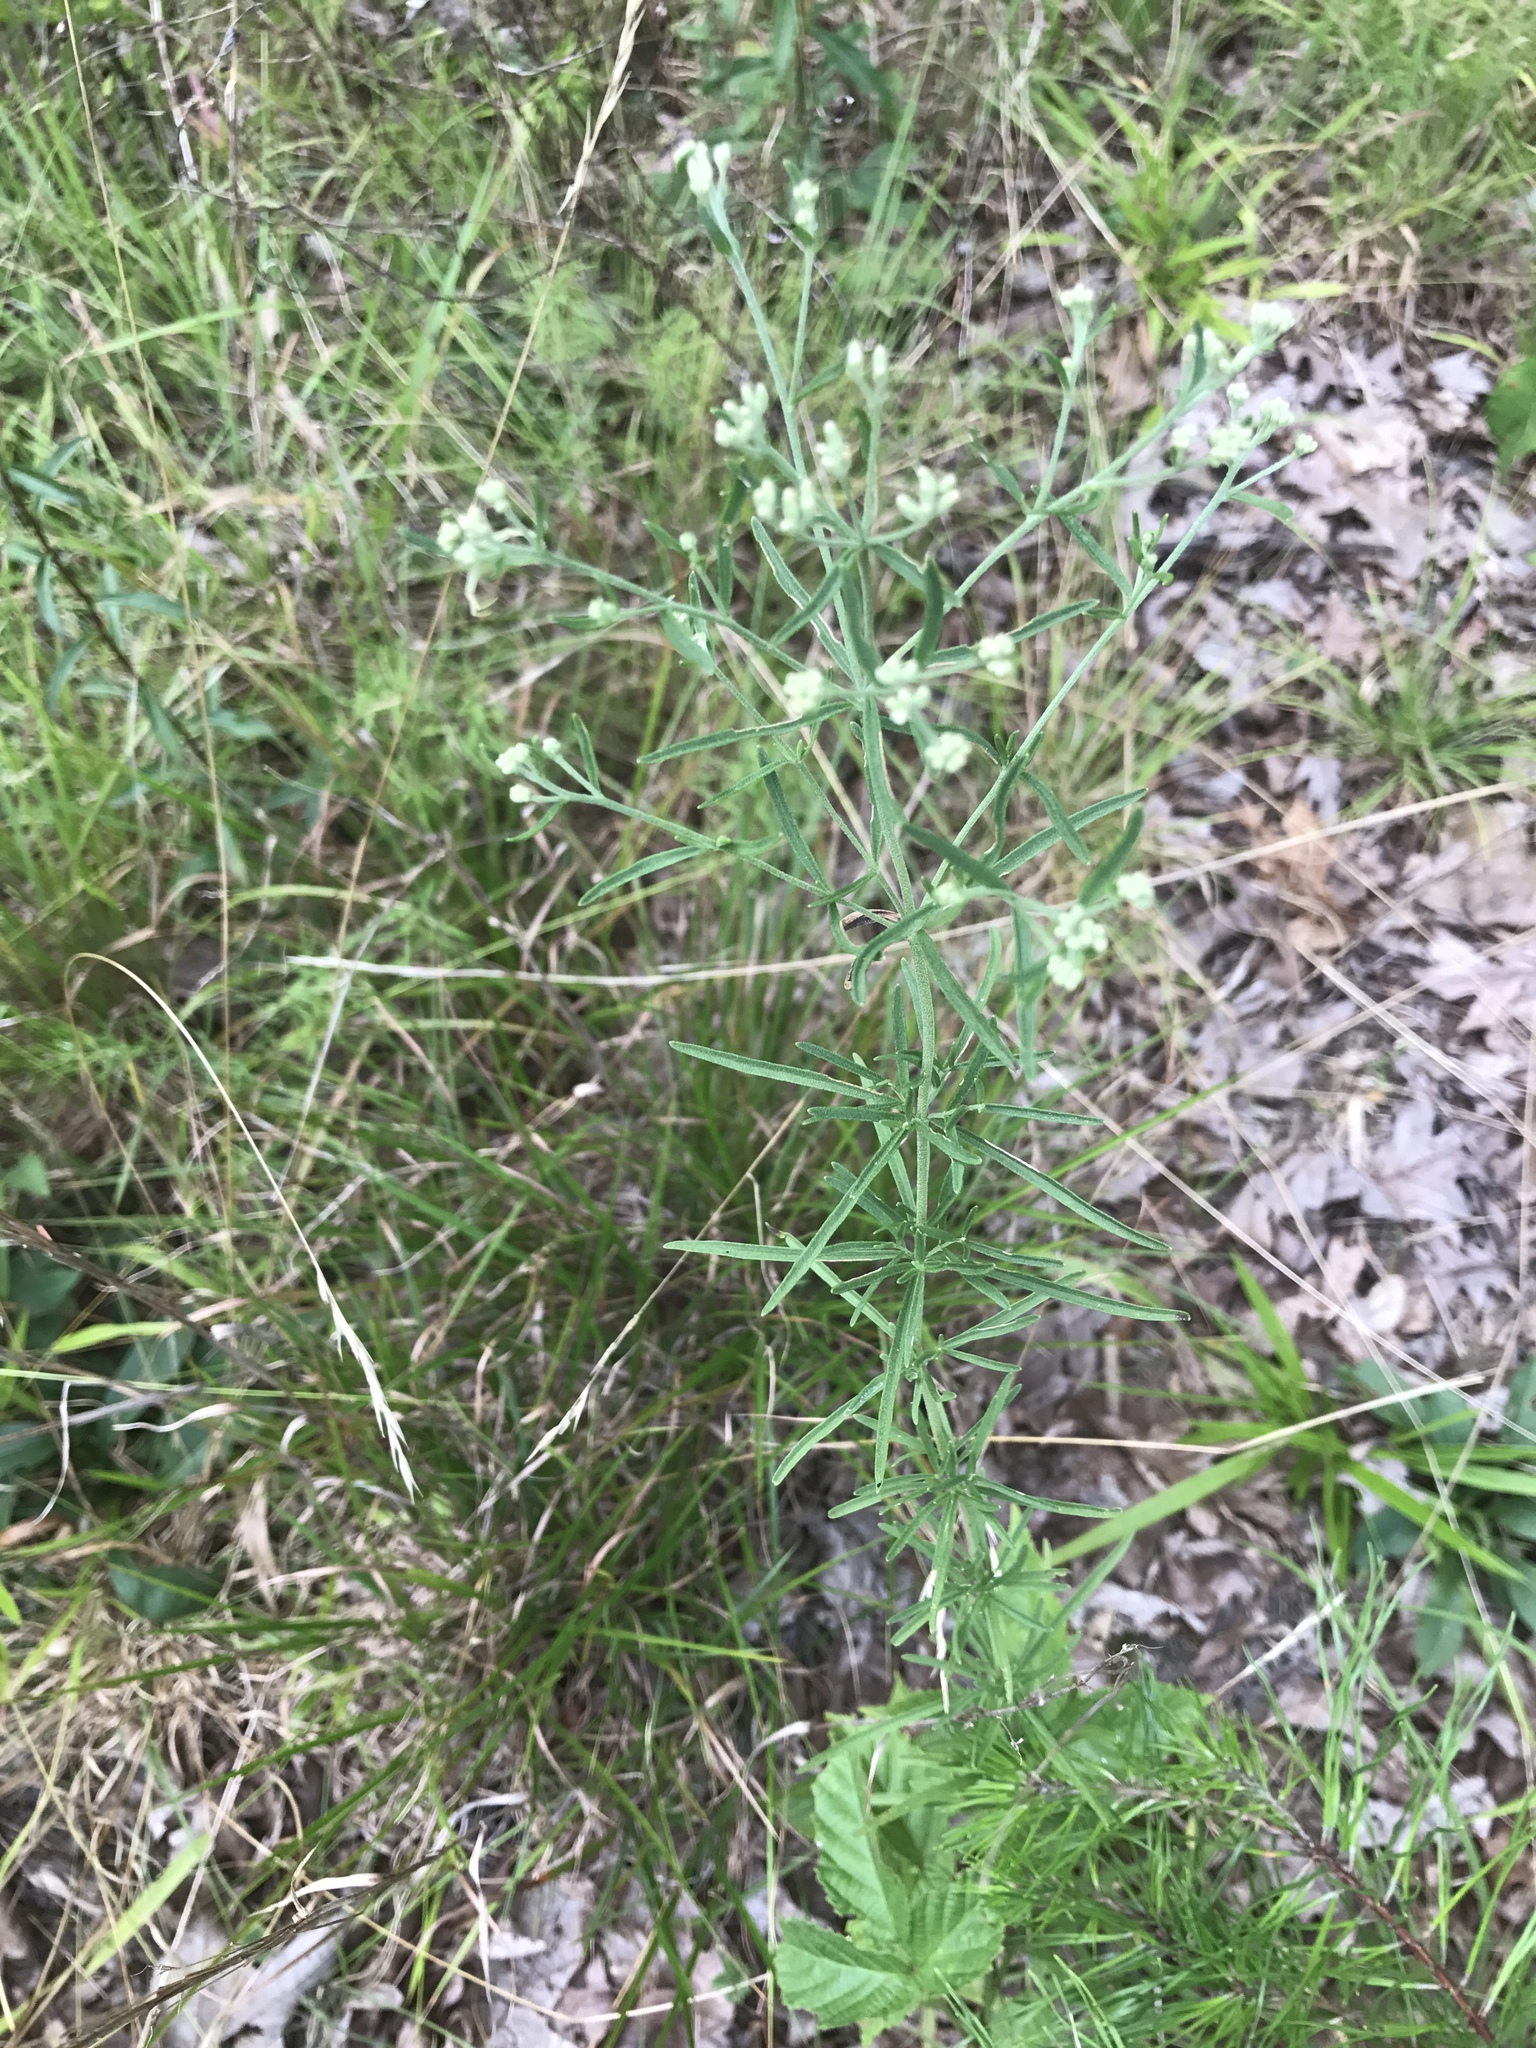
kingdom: Plantae
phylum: Tracheophyta
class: Magnoliopsida
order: Asterales
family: Asteraceae
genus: Eupatorium
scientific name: Eupatorium hyssopifolium
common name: Hyssop-leaf thoroughwort
